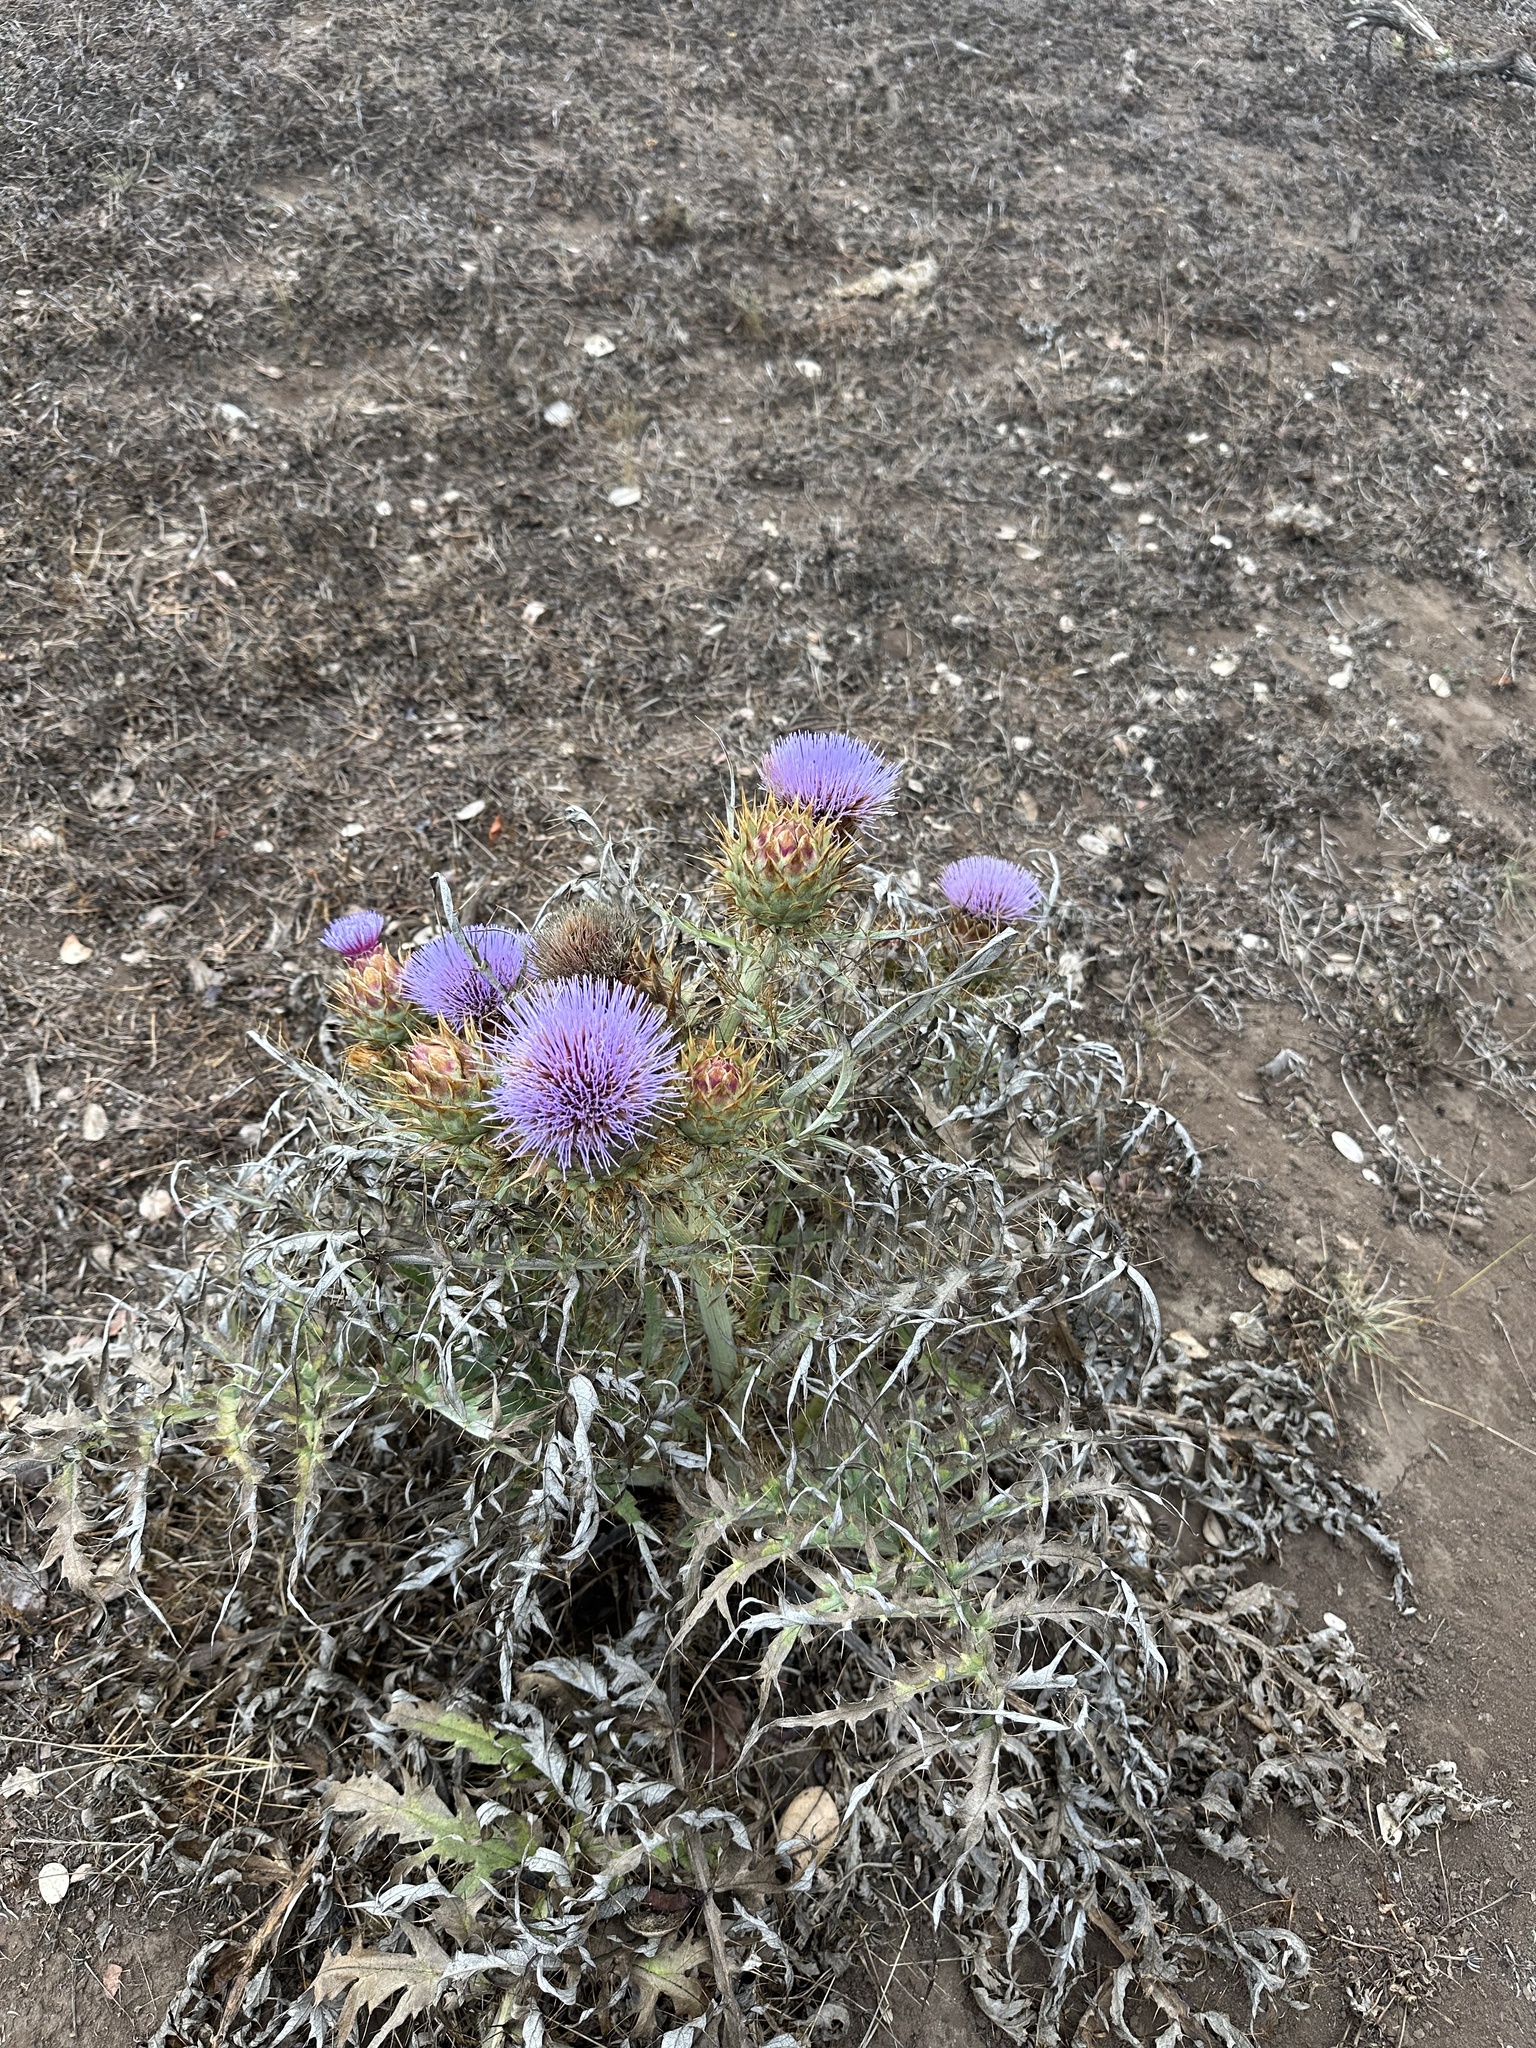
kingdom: Plantae
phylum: Tracheophyta
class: Magnoliopsida
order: Asterales
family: Asteraceae
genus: Cynara
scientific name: Cynara cardunculus
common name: Globe artichoke
